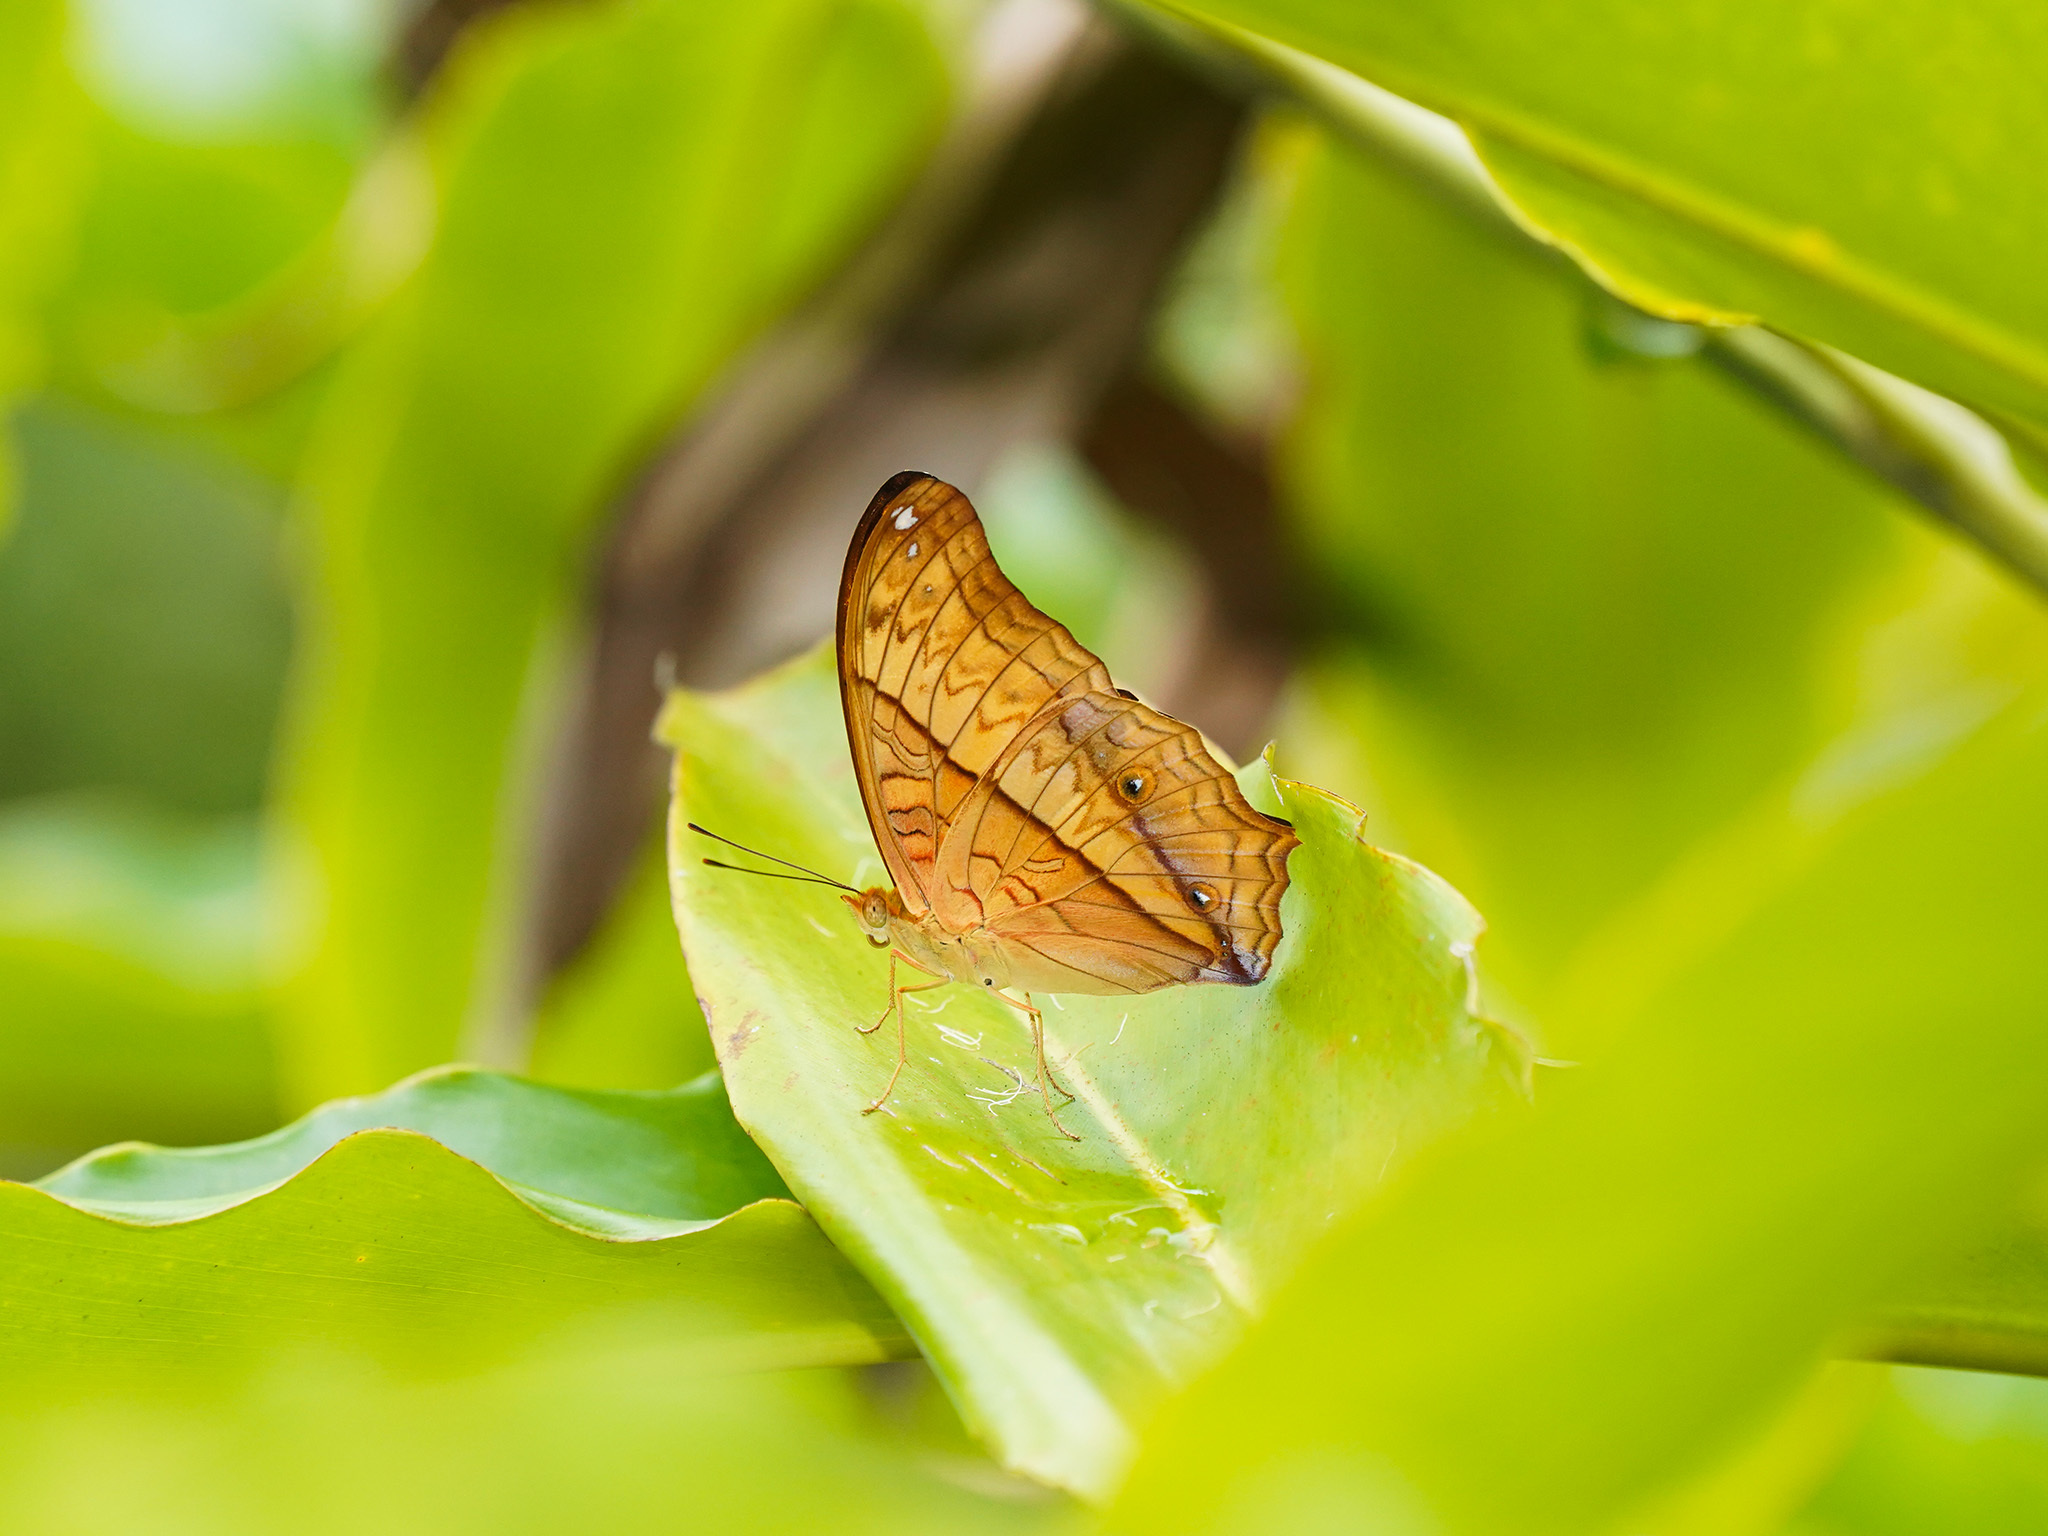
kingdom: Animalia
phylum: Arthropoda
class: Insecta
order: Lepidoptera
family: Nymphalidae
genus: Vindula
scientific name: Vindula deione
